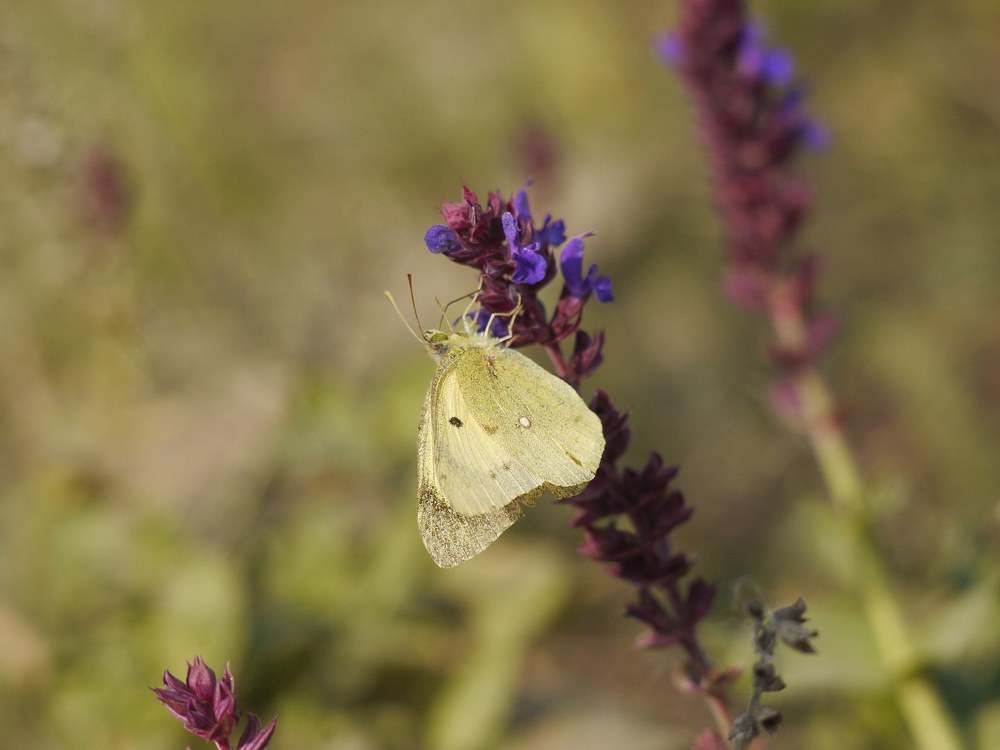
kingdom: Animalia
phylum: Arthropoda
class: Insecta
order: Lepidoptera
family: Pieridae
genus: Colias
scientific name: Colias erate
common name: Eastern pale clouded yellow
